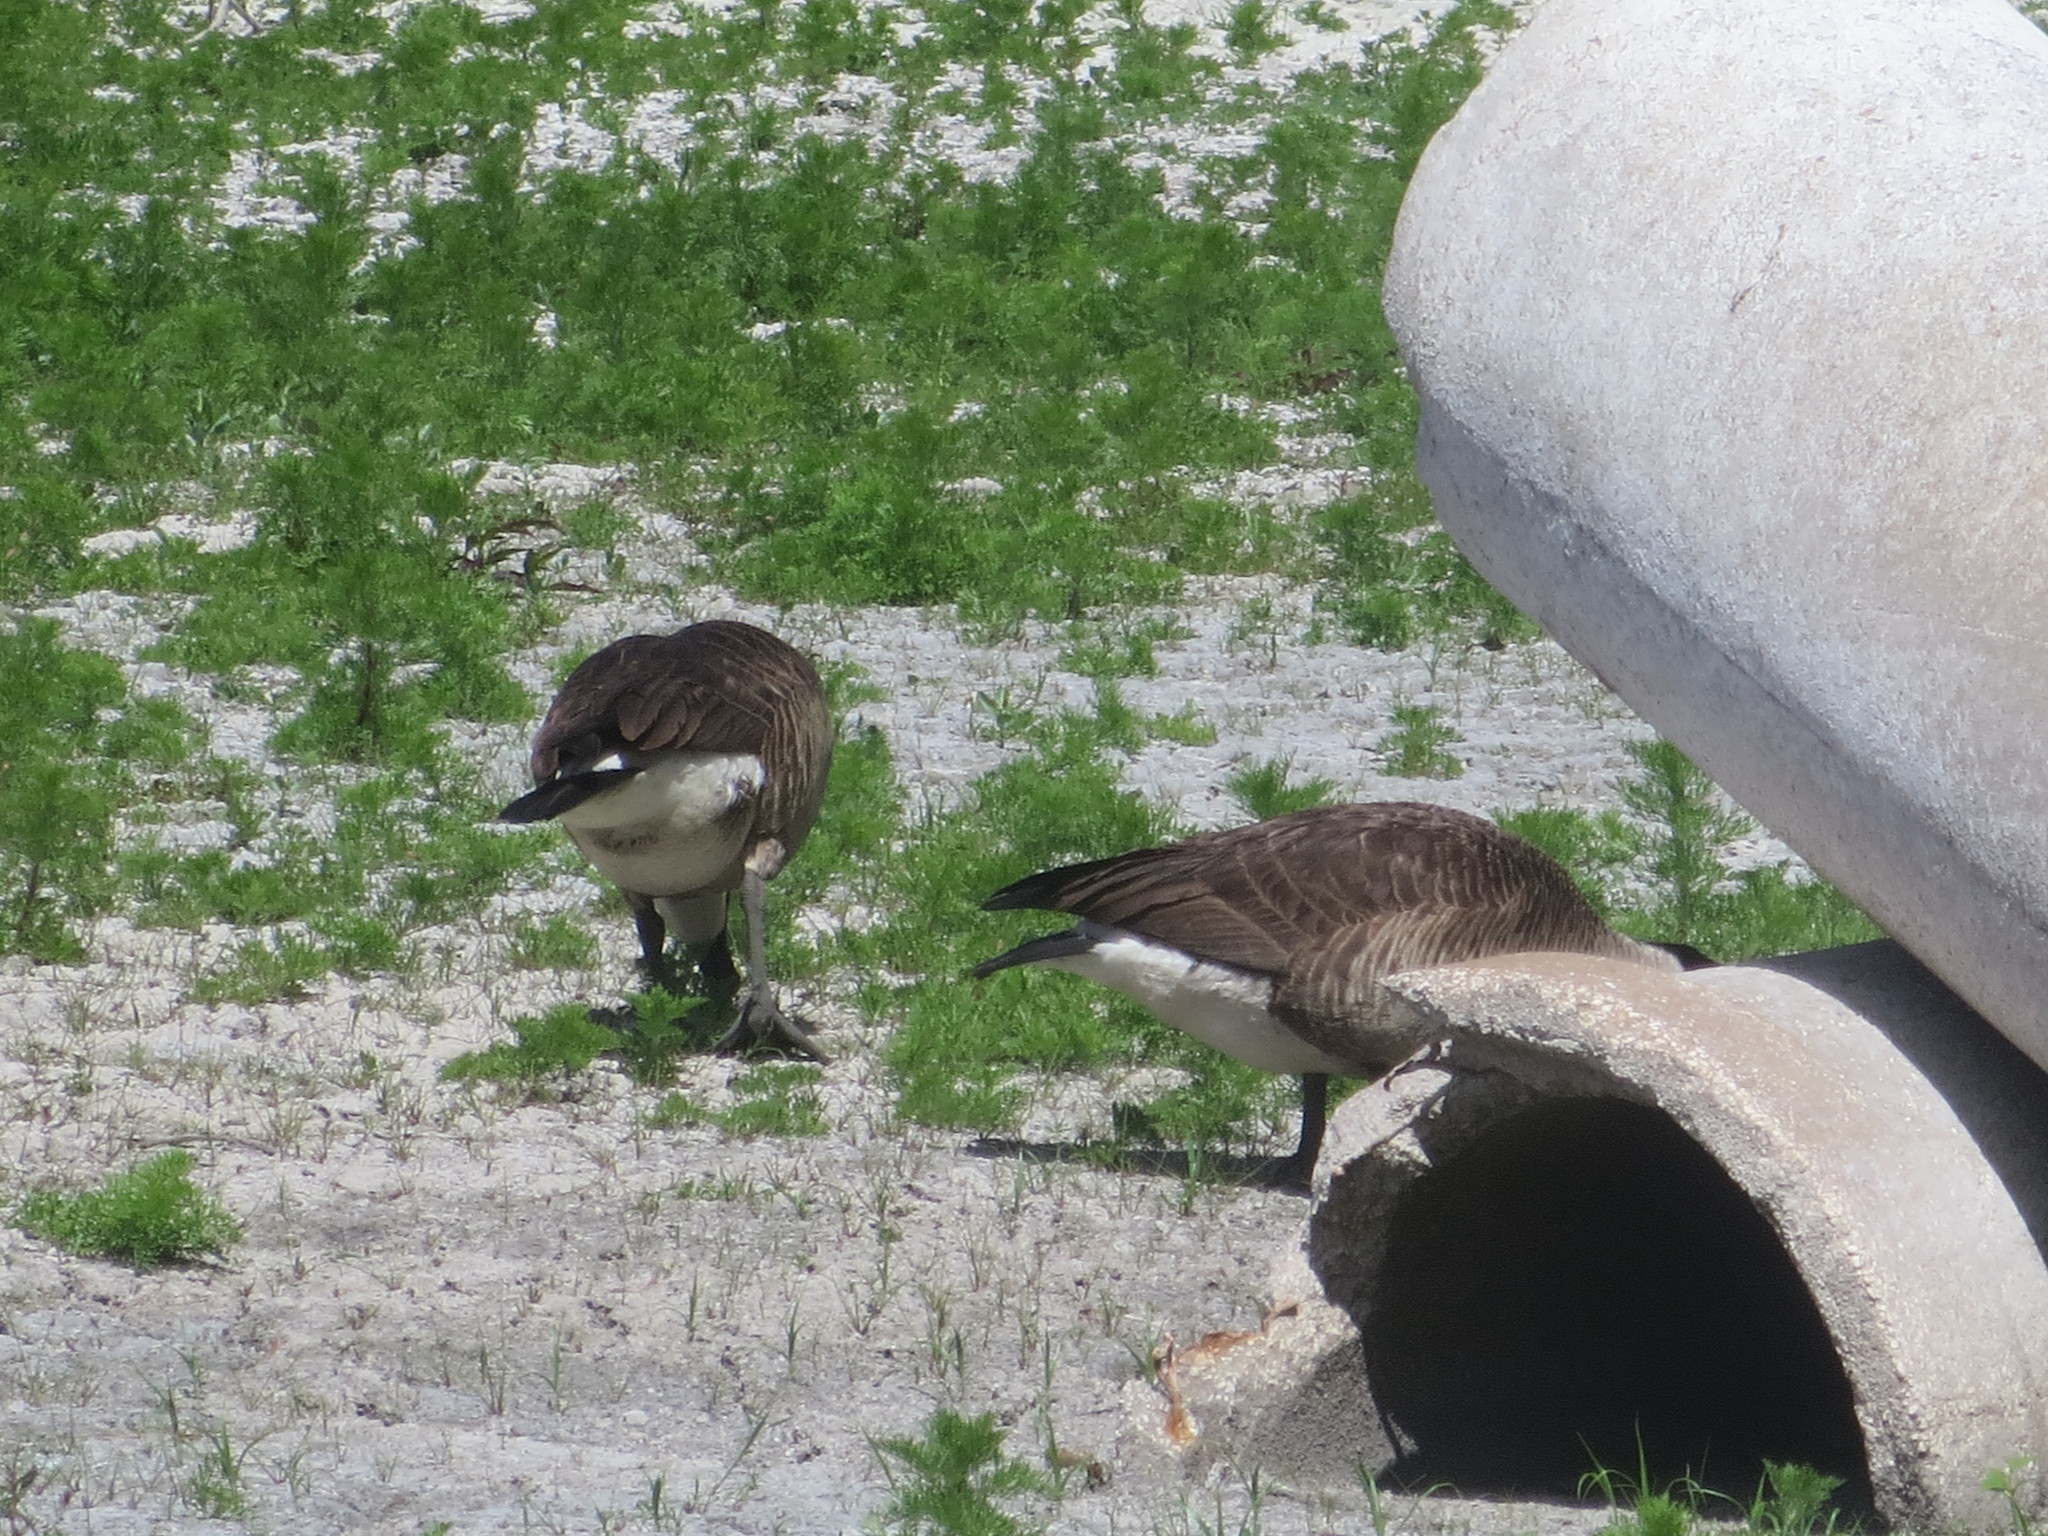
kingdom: Animalia
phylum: Chordata
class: Aves
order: Anseriformes
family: Anatidae
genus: Branta
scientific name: Branta canadensis
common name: Canada goose
